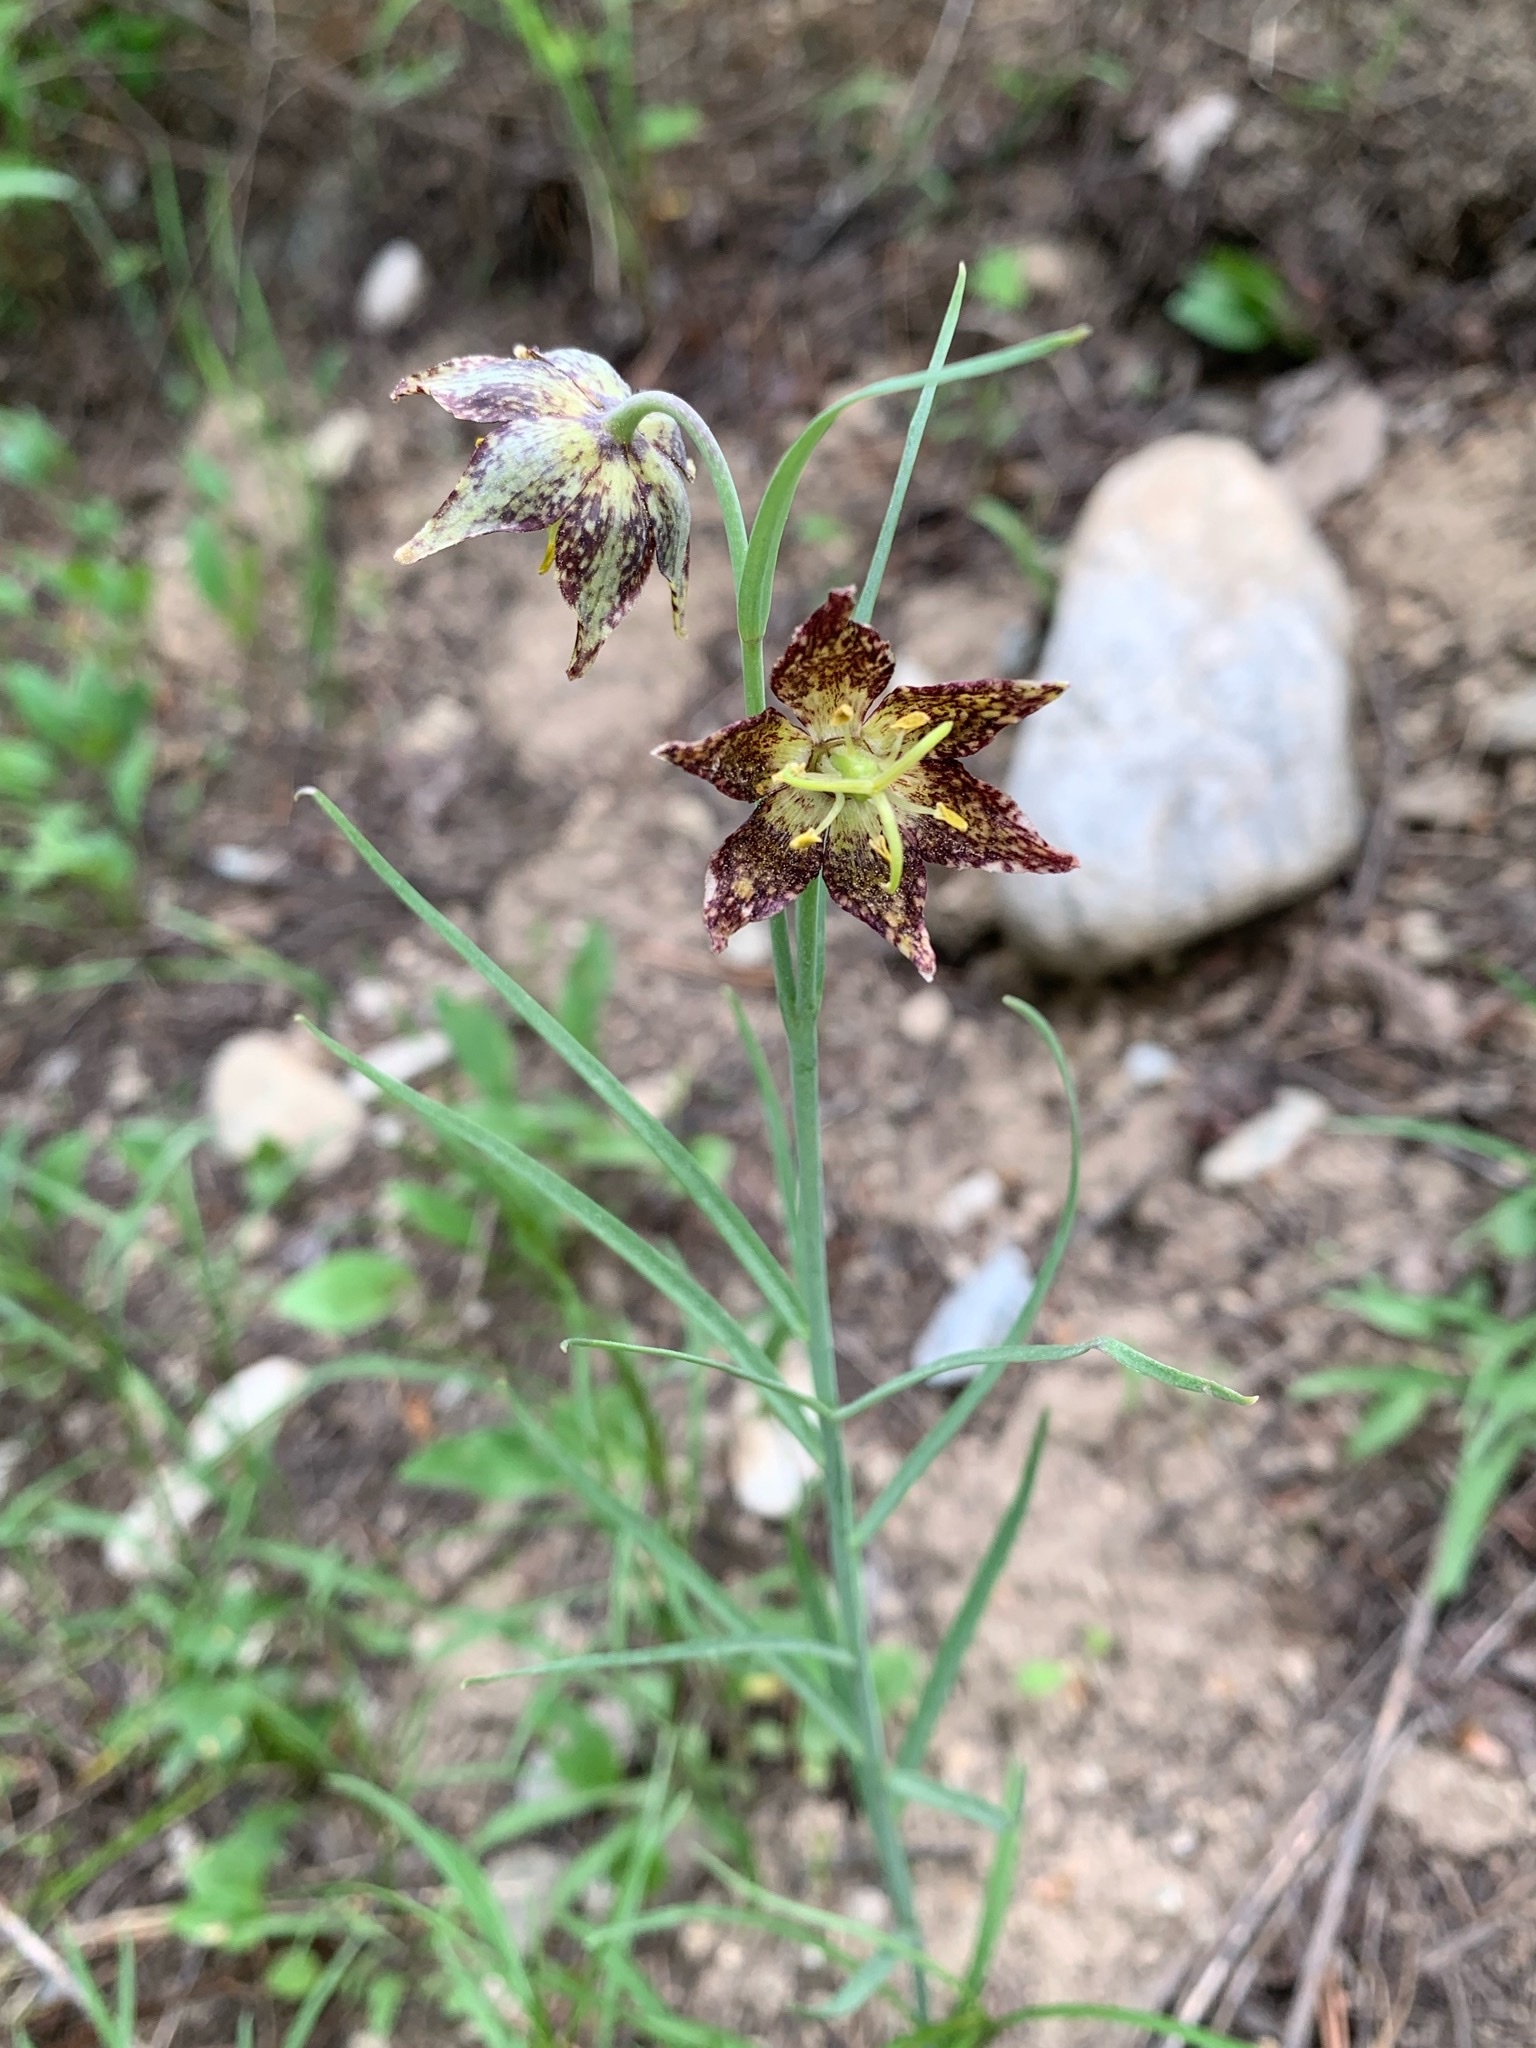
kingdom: Plantae
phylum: Tracheophyta
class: Liliopsida
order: Liliales
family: Liliaceae
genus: Fritillaria
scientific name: Fritillaria atropurpurea
